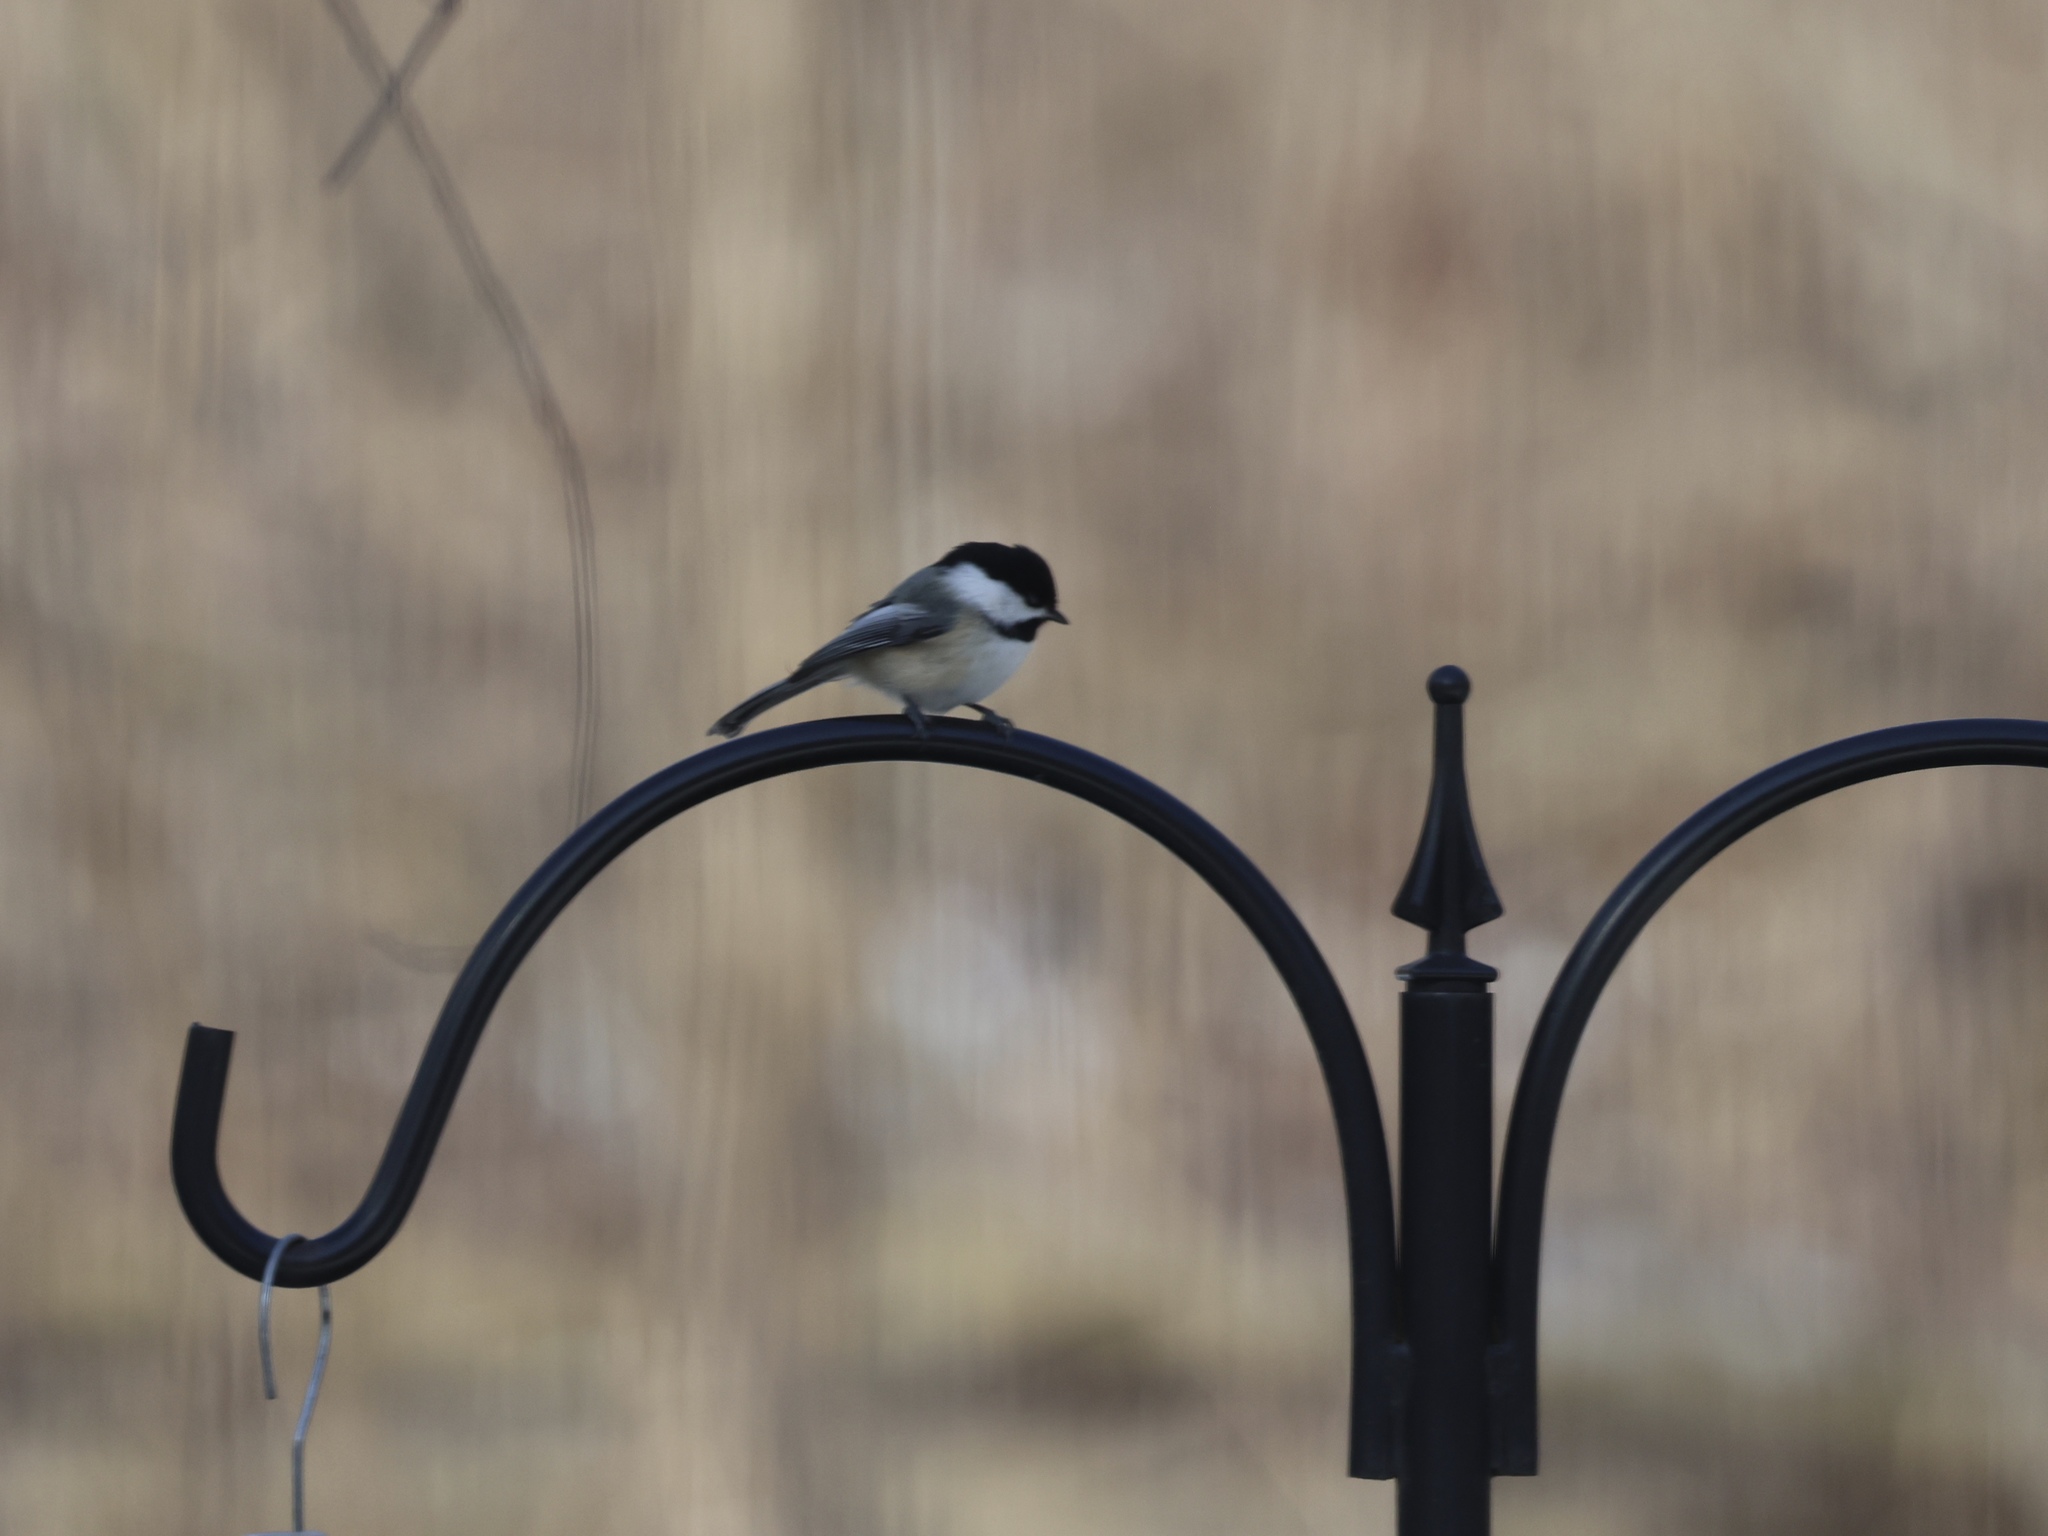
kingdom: Animalia
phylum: Chordata
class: Aves
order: Passeriformes
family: Paridae
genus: Poecile
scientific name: Poecile atricapillus
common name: Black-capped chickadee
